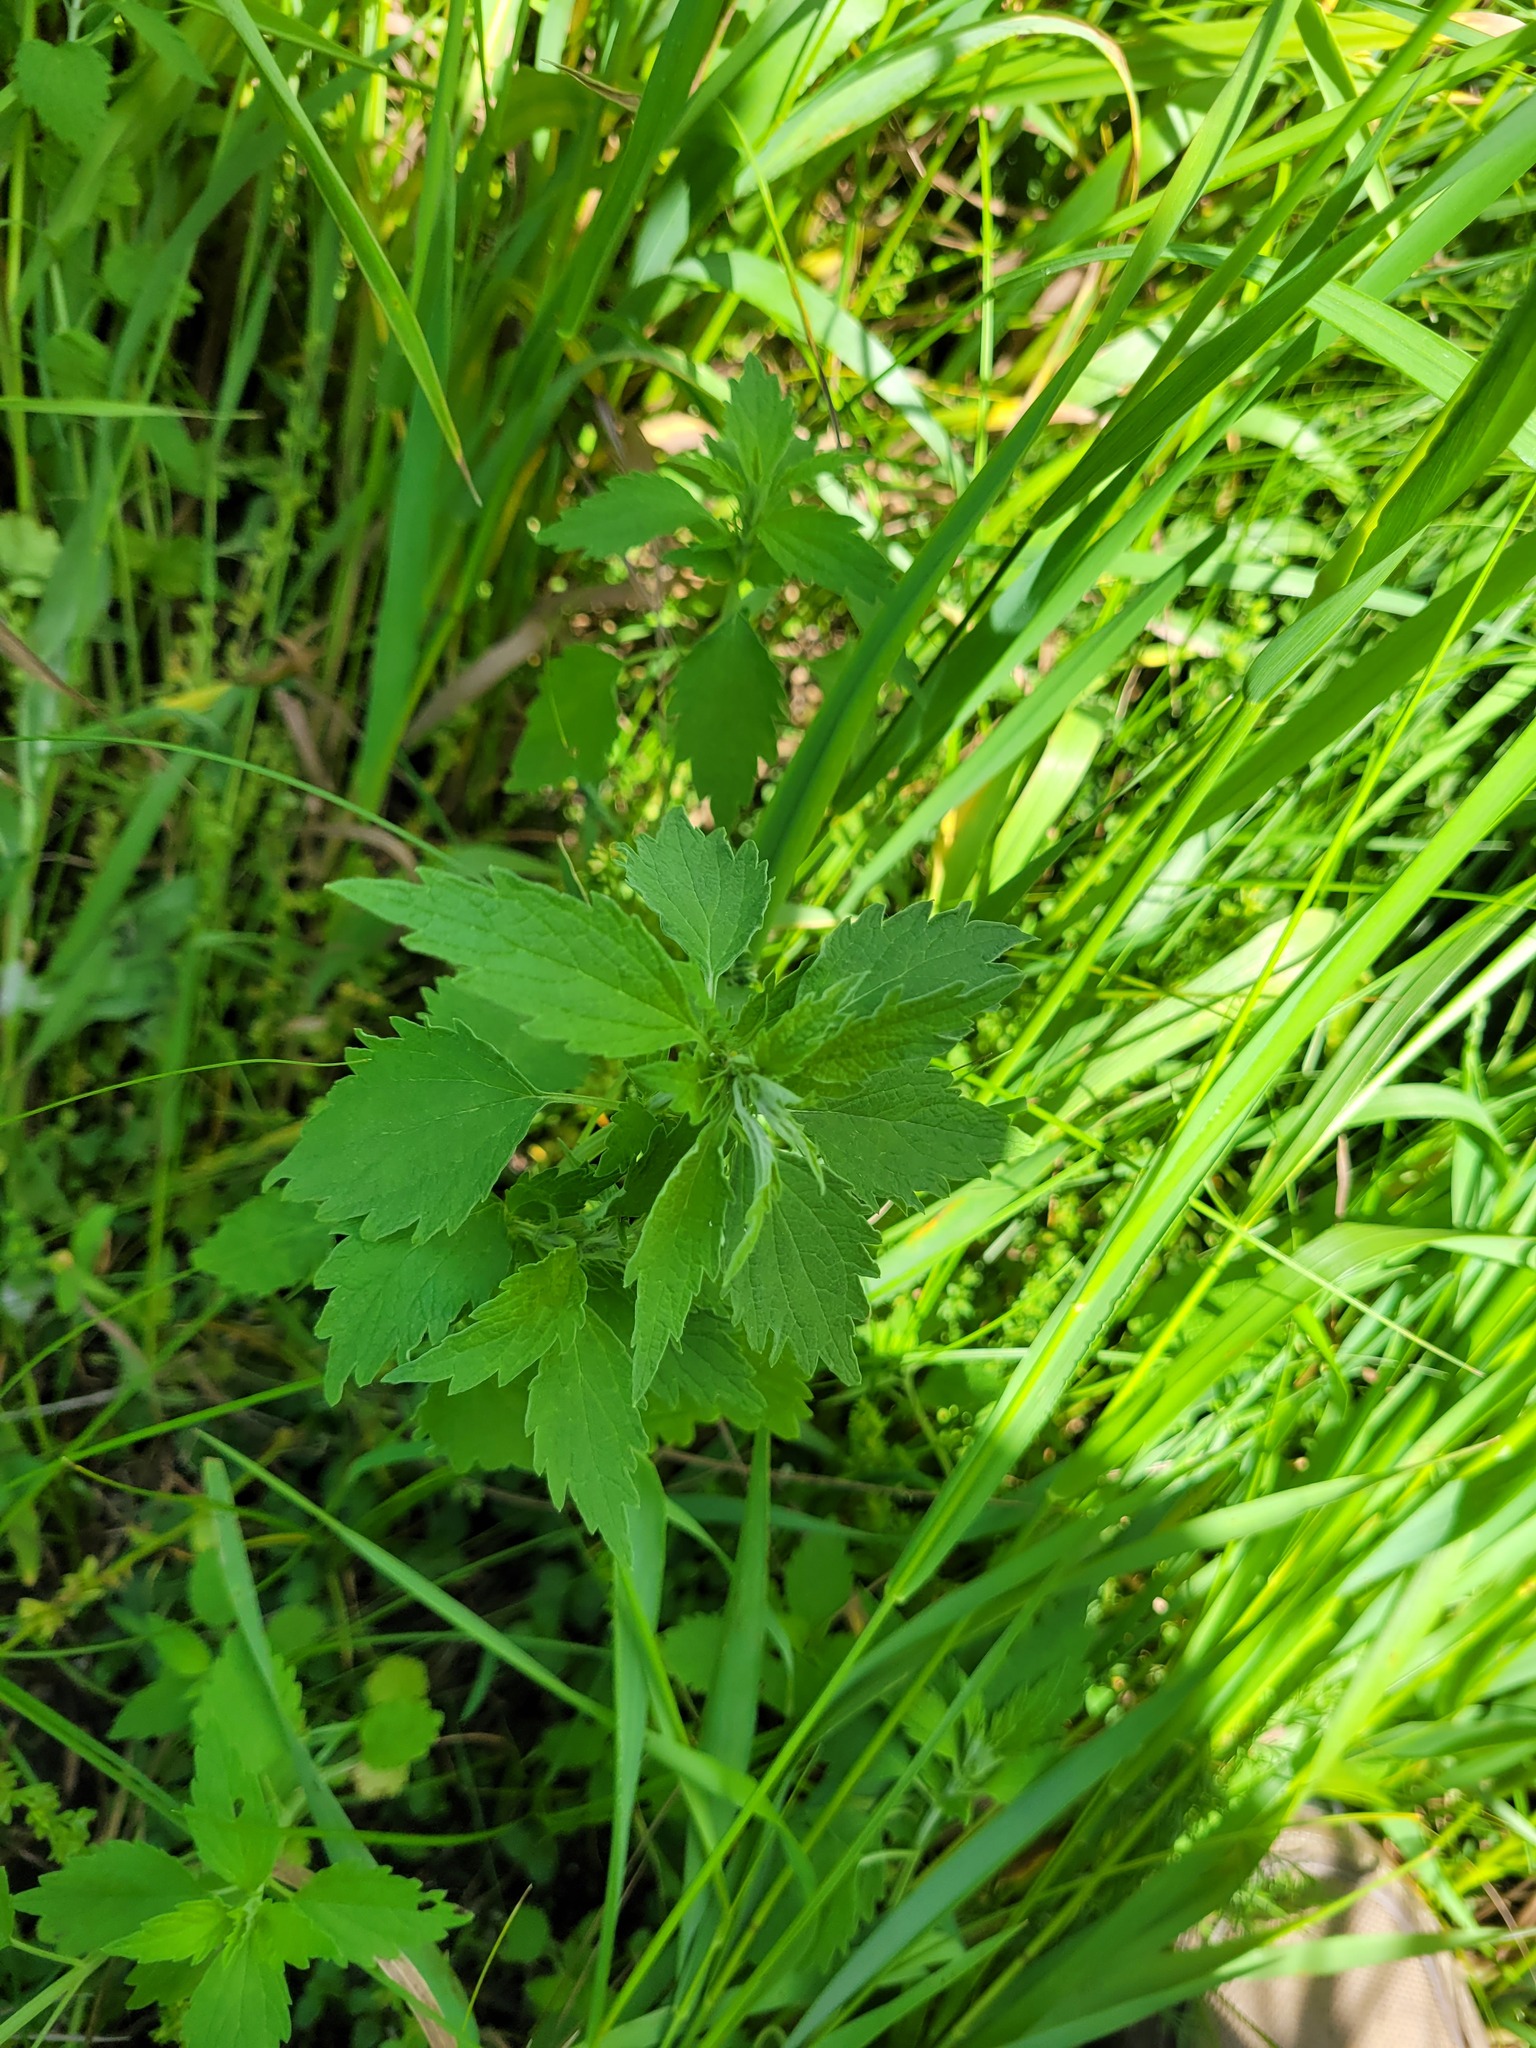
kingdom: Plantae
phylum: Tracheophyta
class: Magnoliopsida
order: Lamiales
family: Lamiaceae
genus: Chaiturus
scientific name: Chaiturus marrubiastrum
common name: Lion's tail
